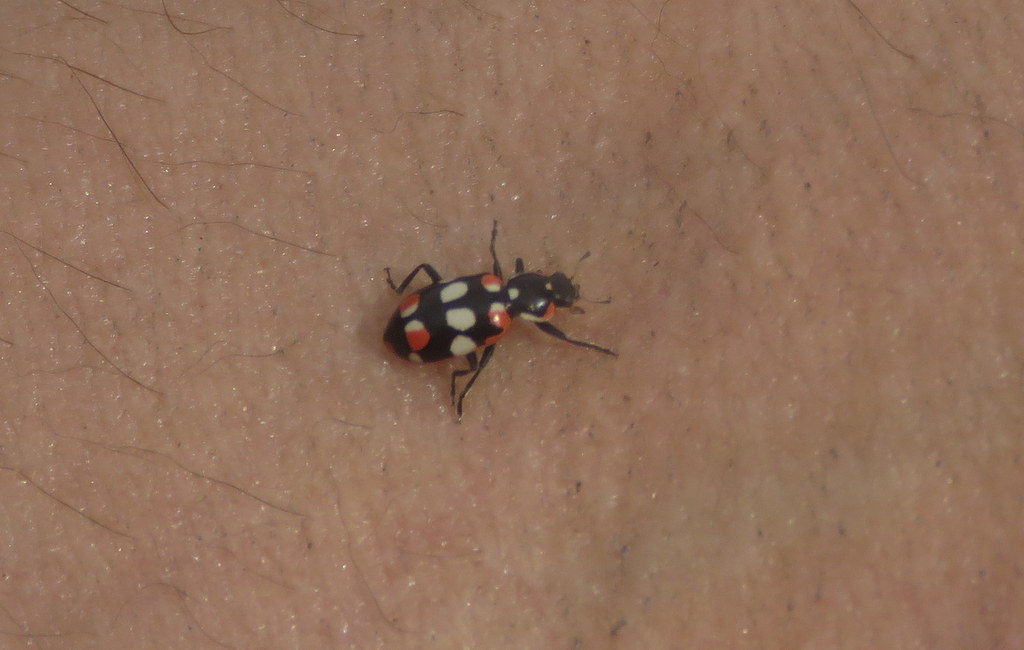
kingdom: Animalia
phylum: Arthropoda
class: Insecta
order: Coleoptera
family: Coccinellidae
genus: Eriopis
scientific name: Eriopis connexa
